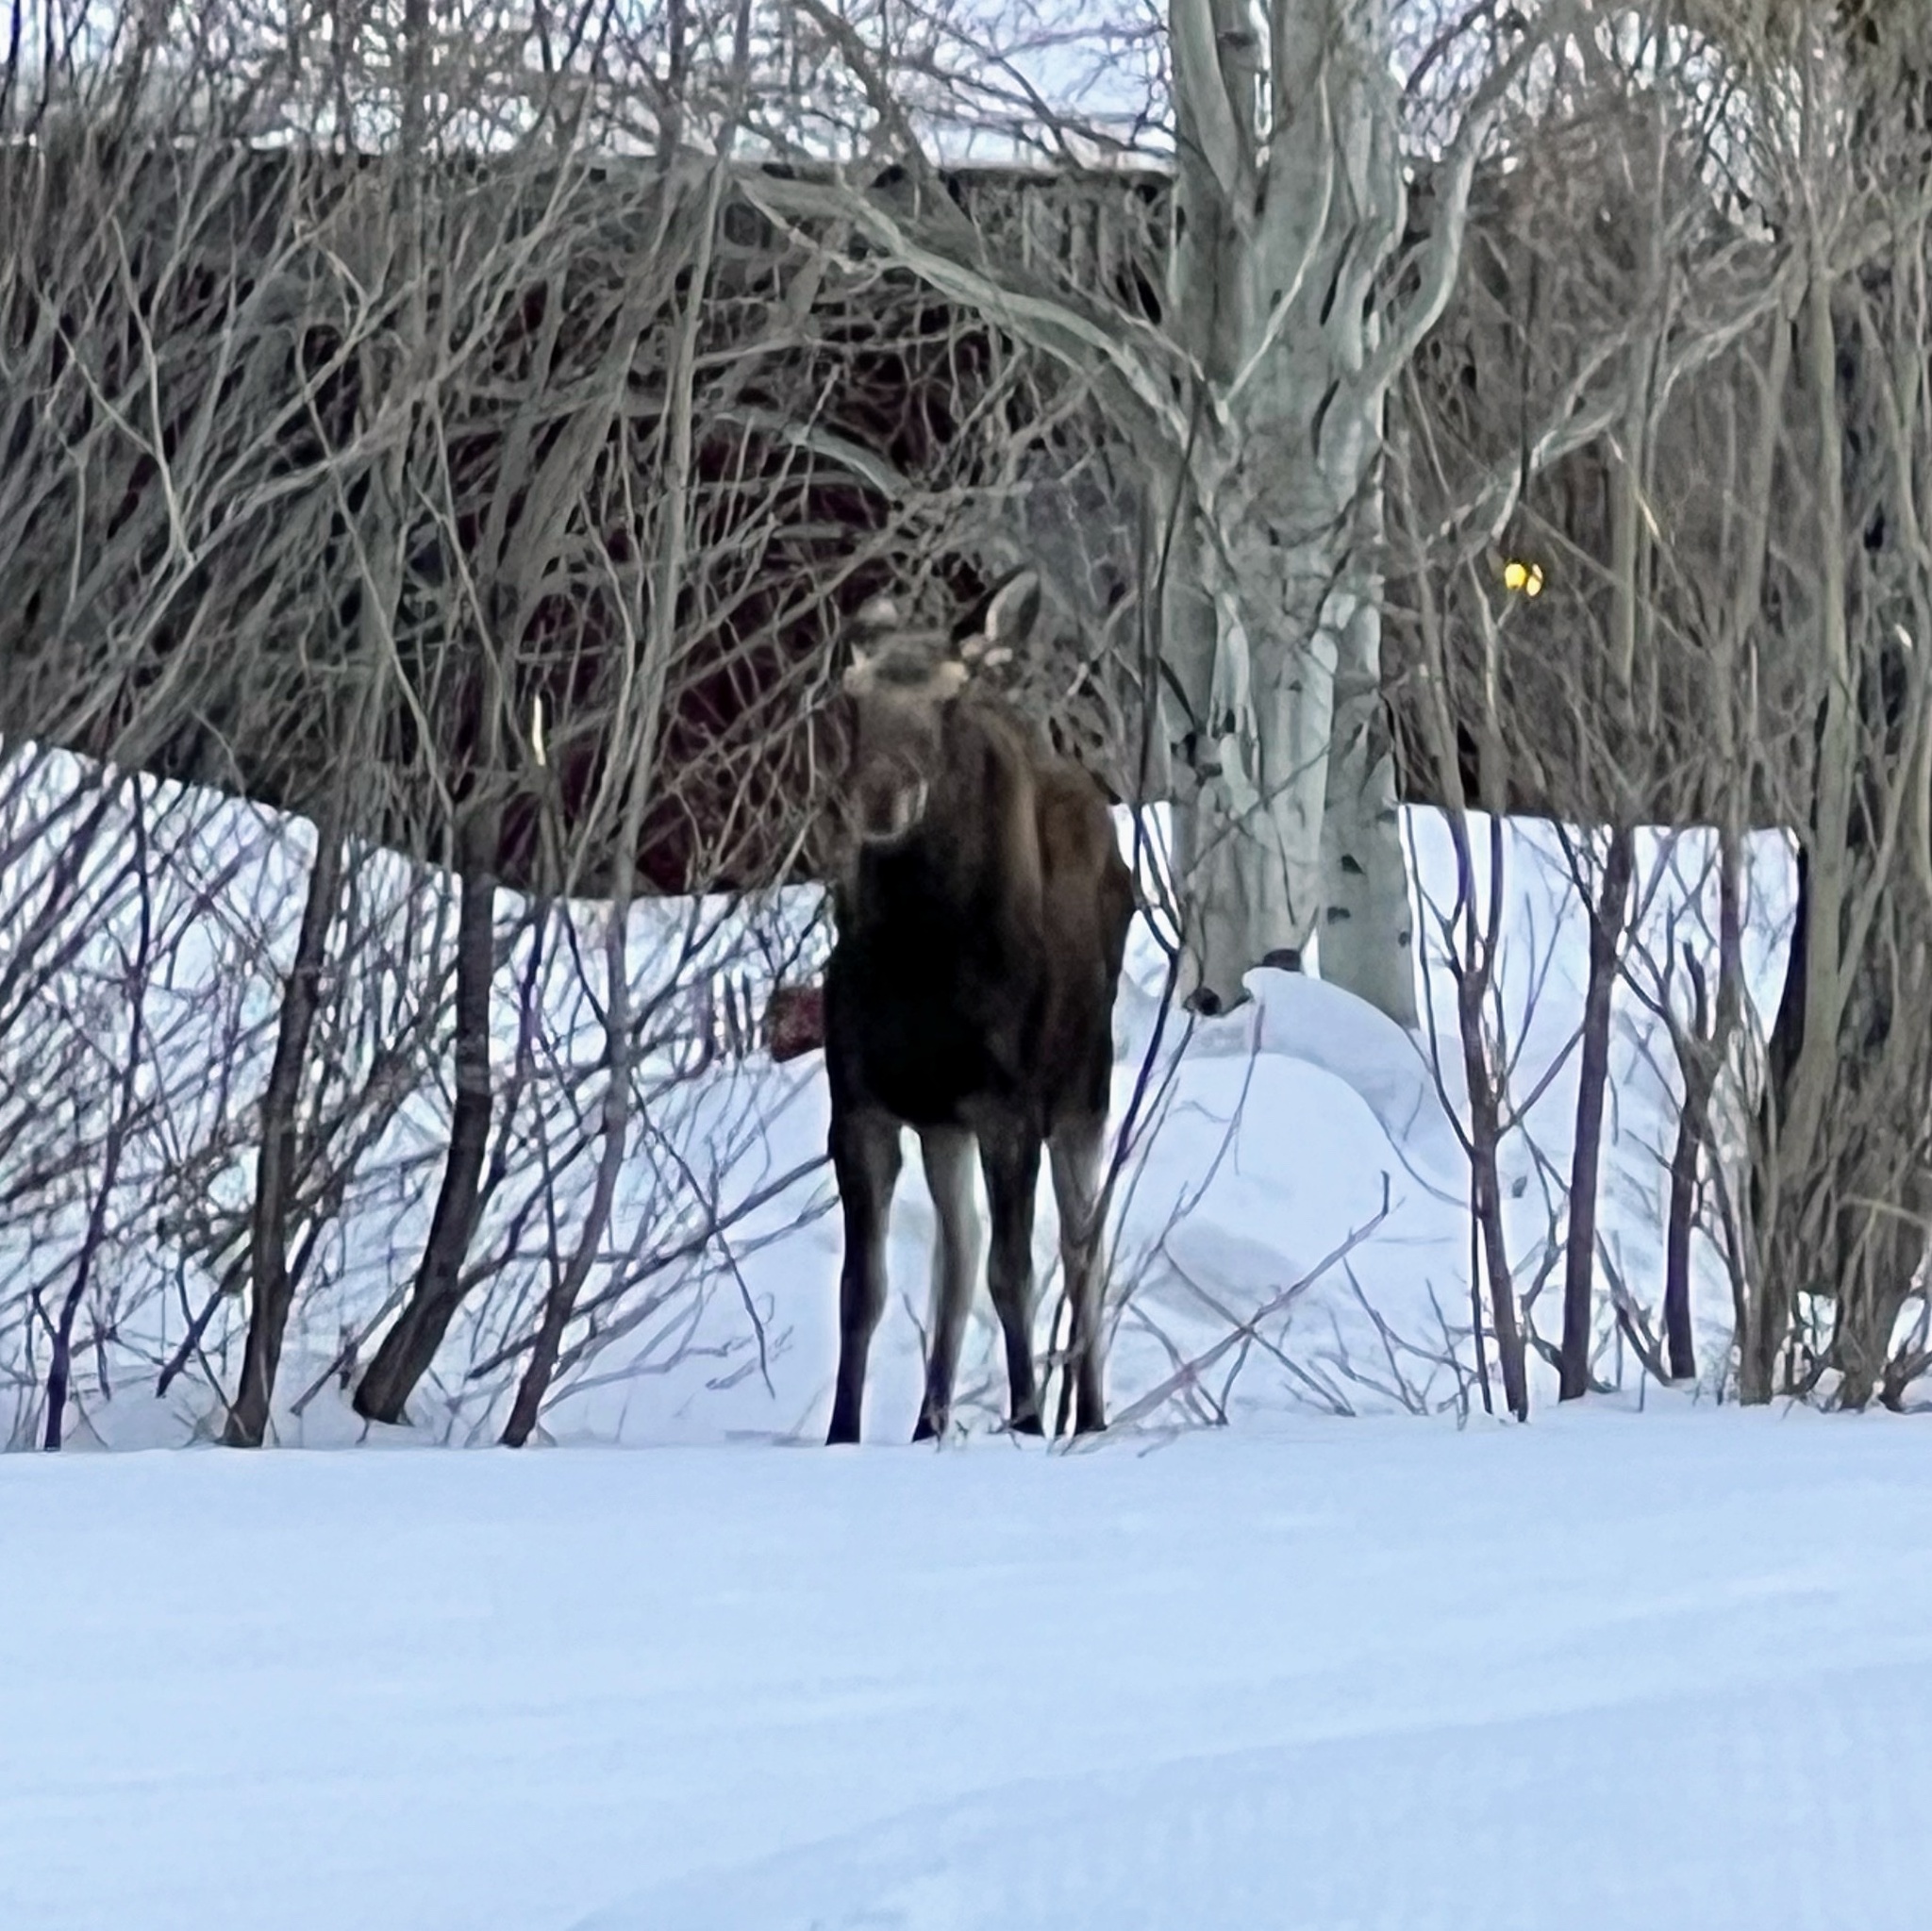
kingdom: Animalia
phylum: Chordata
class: Mammalia
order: Artiodactyla
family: Cervidae
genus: Alces
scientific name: Alces alces
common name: Moose
